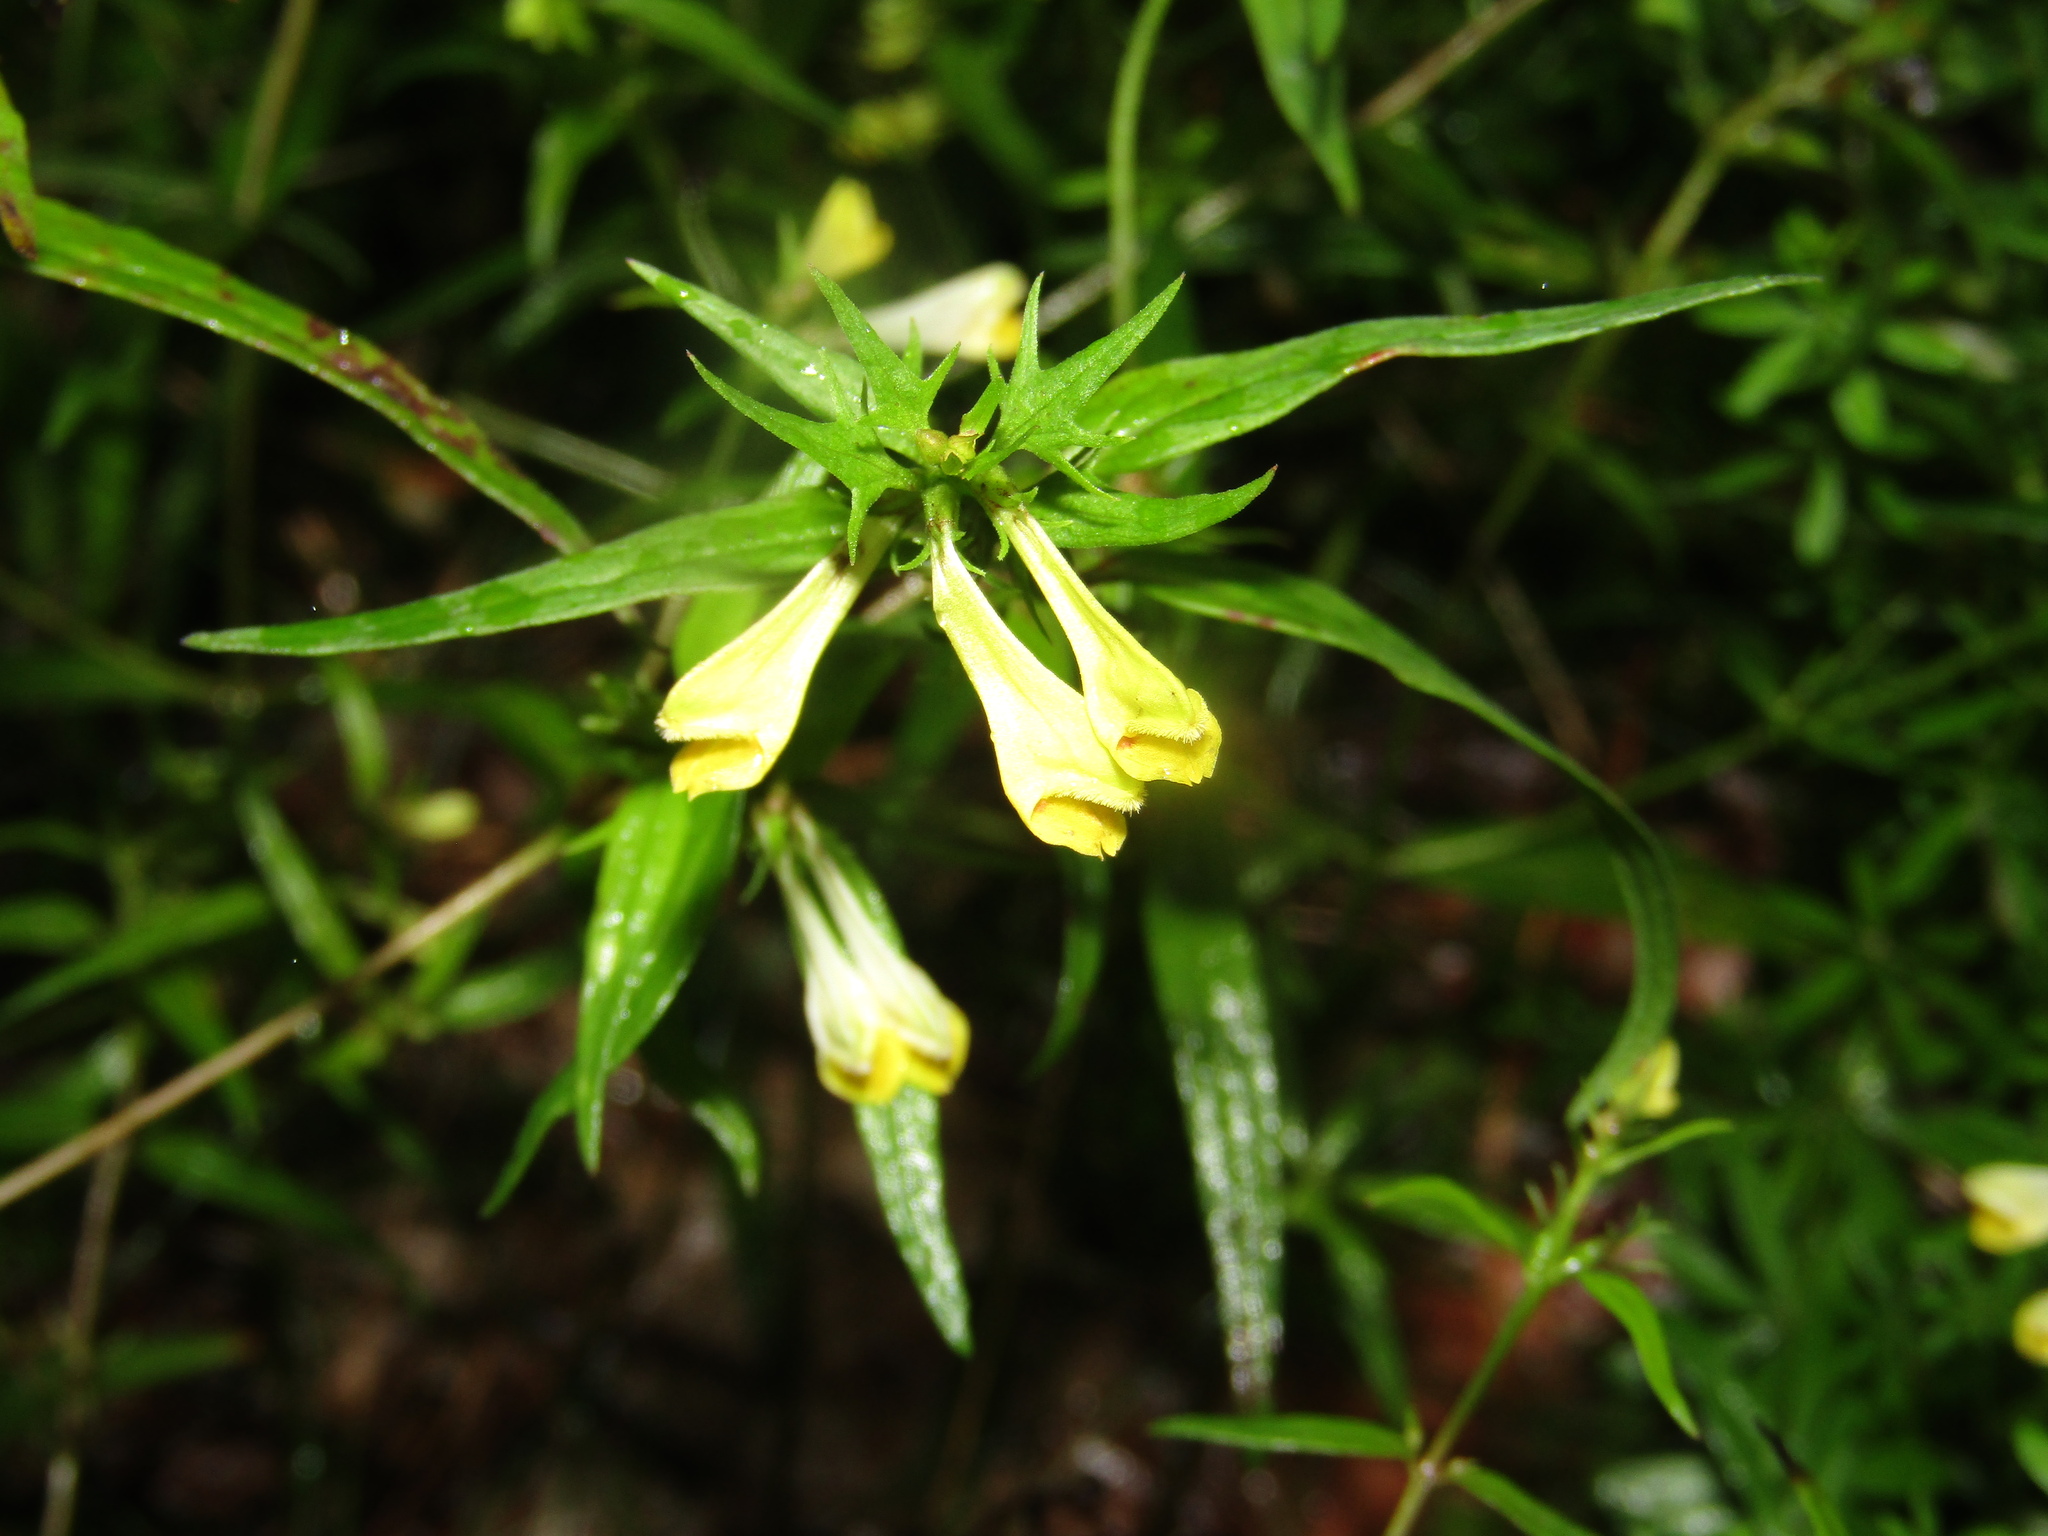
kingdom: Plantae
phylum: Tracheophyta
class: Magnoliopsida
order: Lamiales
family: Orobanchaceae
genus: Melampyrum
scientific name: Melampyrum pratense
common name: Common cow-wheat
